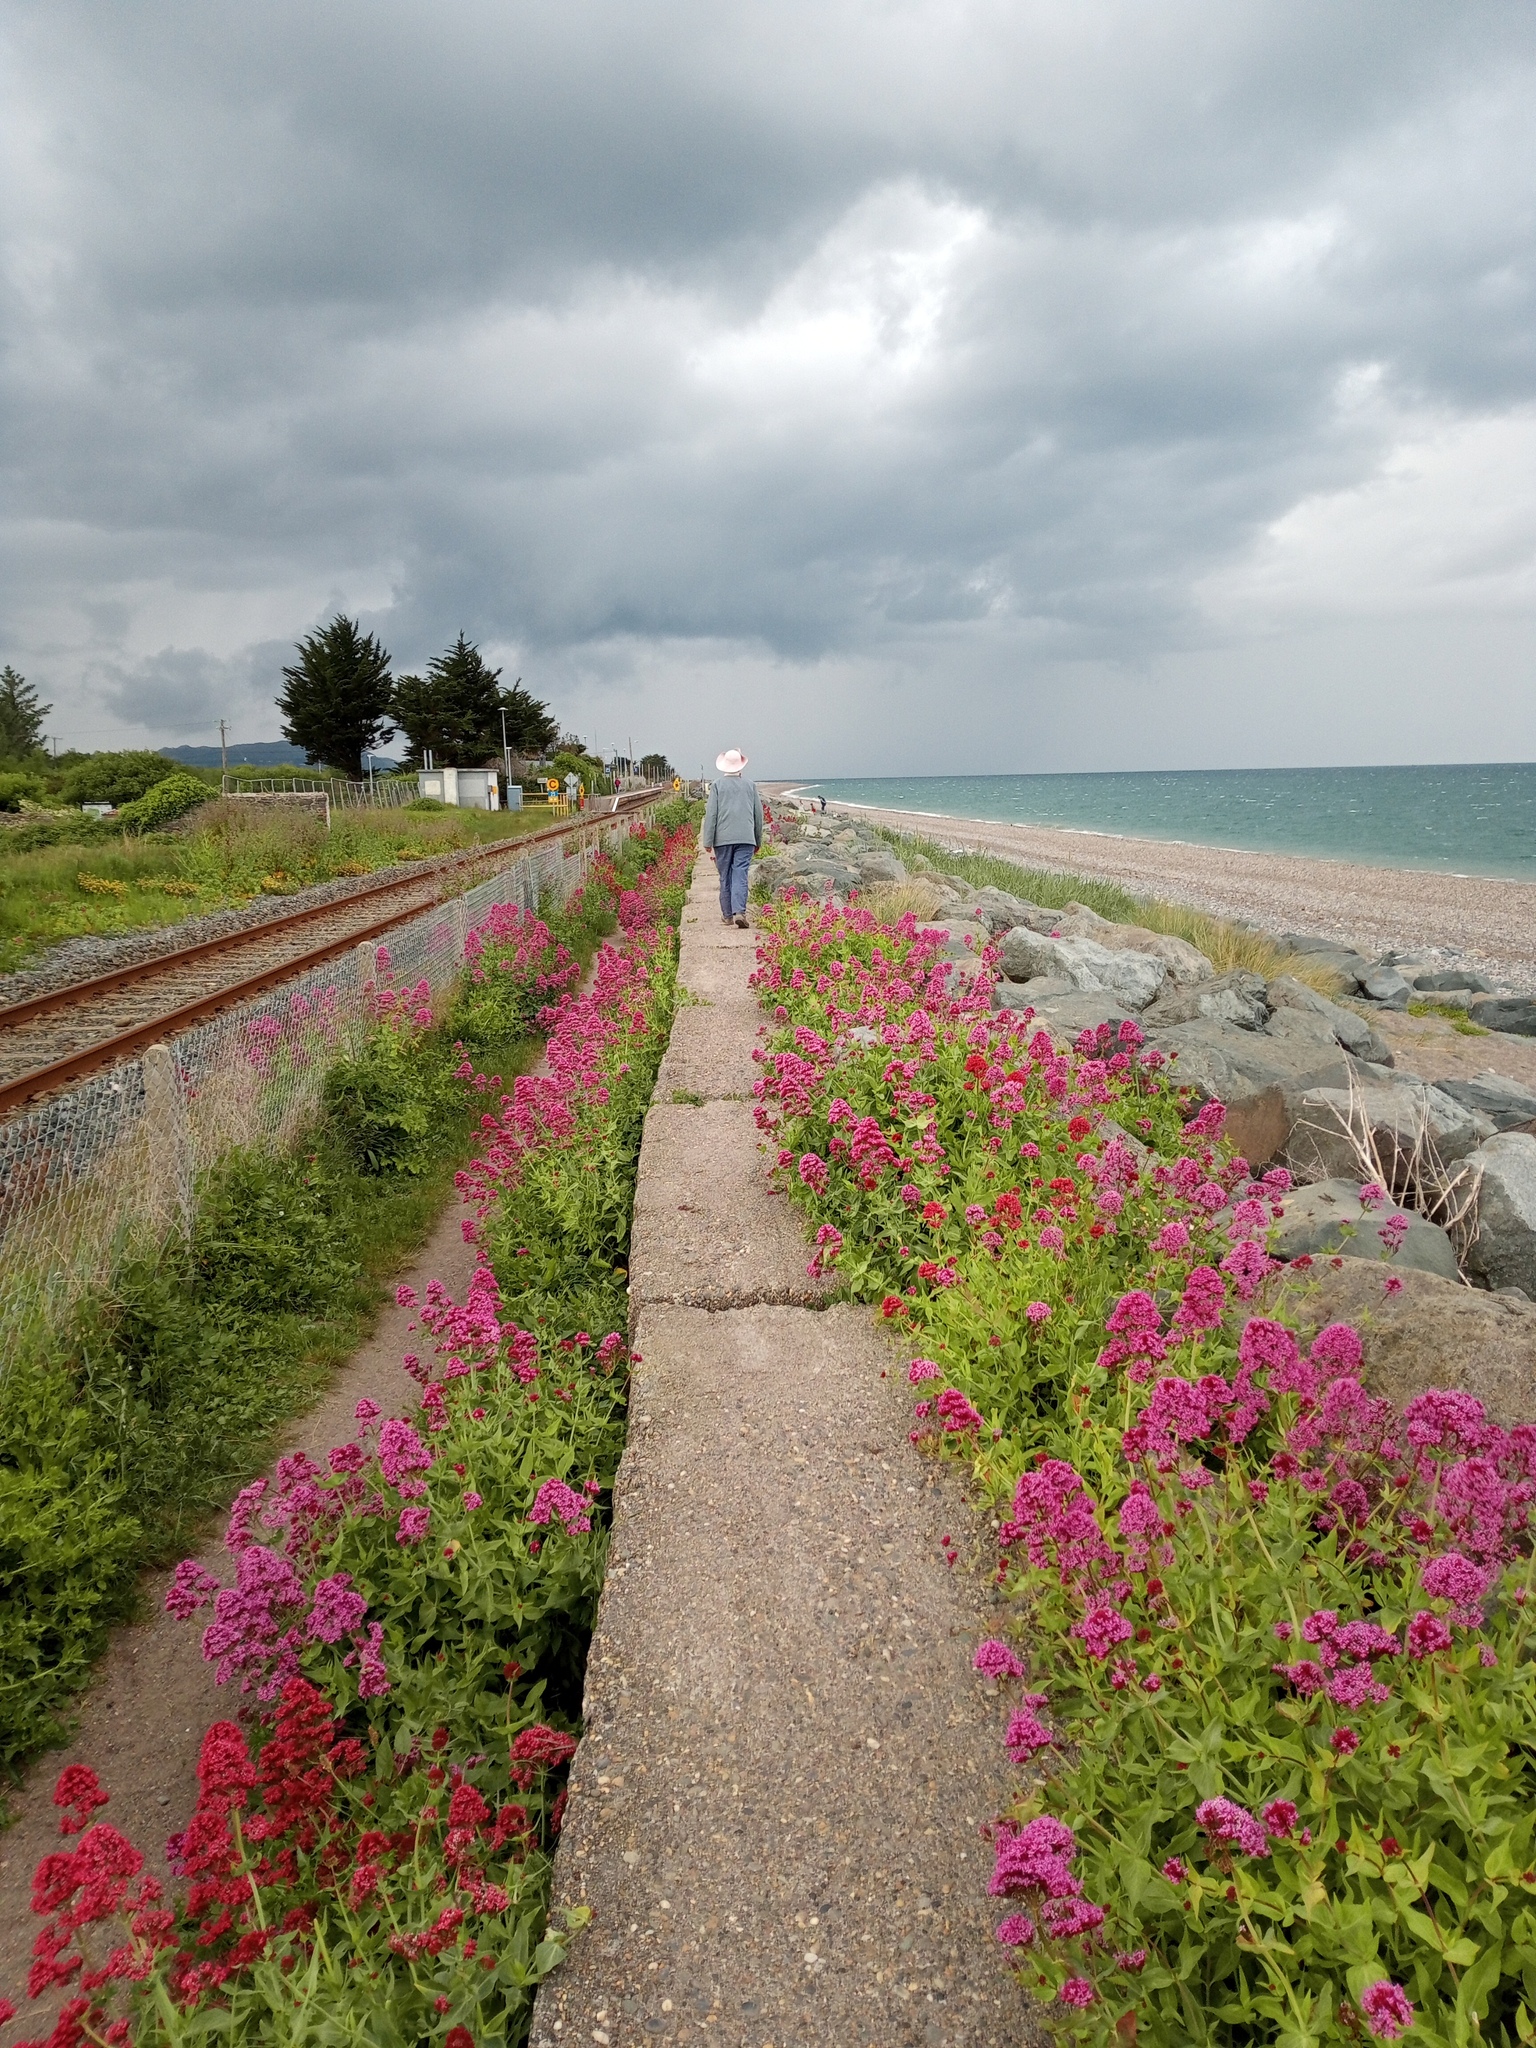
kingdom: Plantae
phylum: Tracheophyta
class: Magnoliopsida
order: Dipsacales
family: Caprifoliaceae
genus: Centranthus
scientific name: Centranthus ruber
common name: Red valerian
